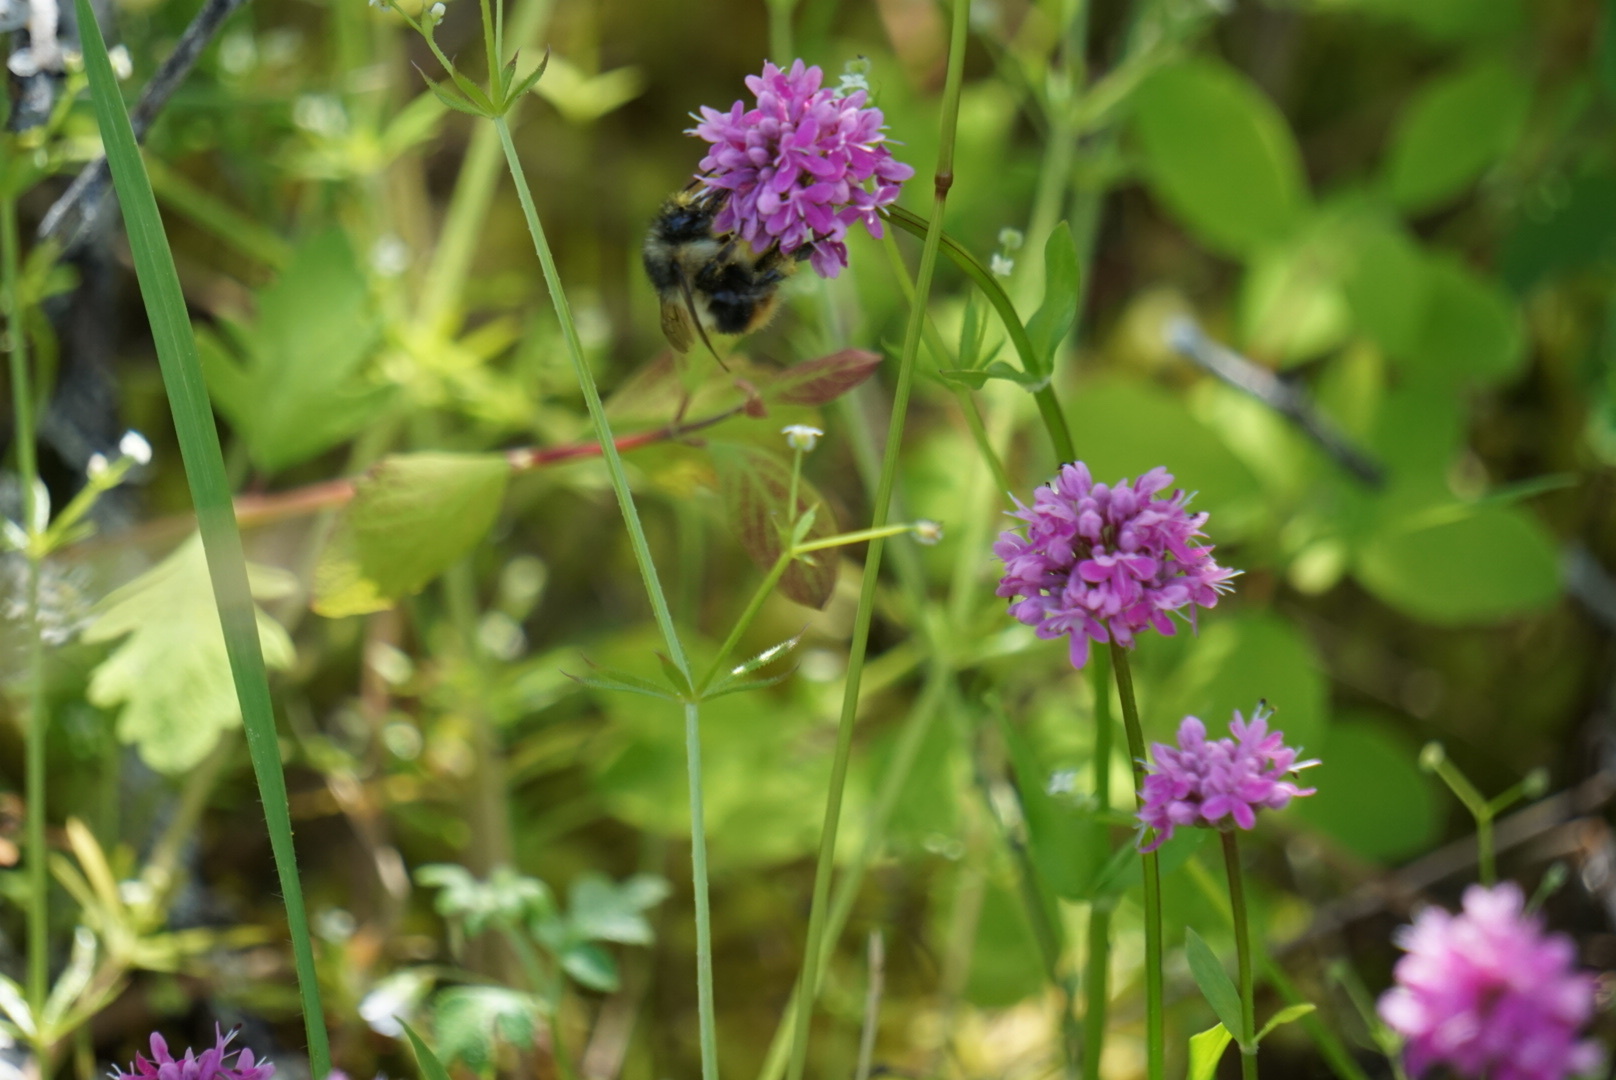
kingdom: Plantae
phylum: Tracheophyta
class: Magnoliopsida
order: Dipsacales
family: Caprifoliaceae
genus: Plectritis
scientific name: Plectritis congesta
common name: Pink plectritis
